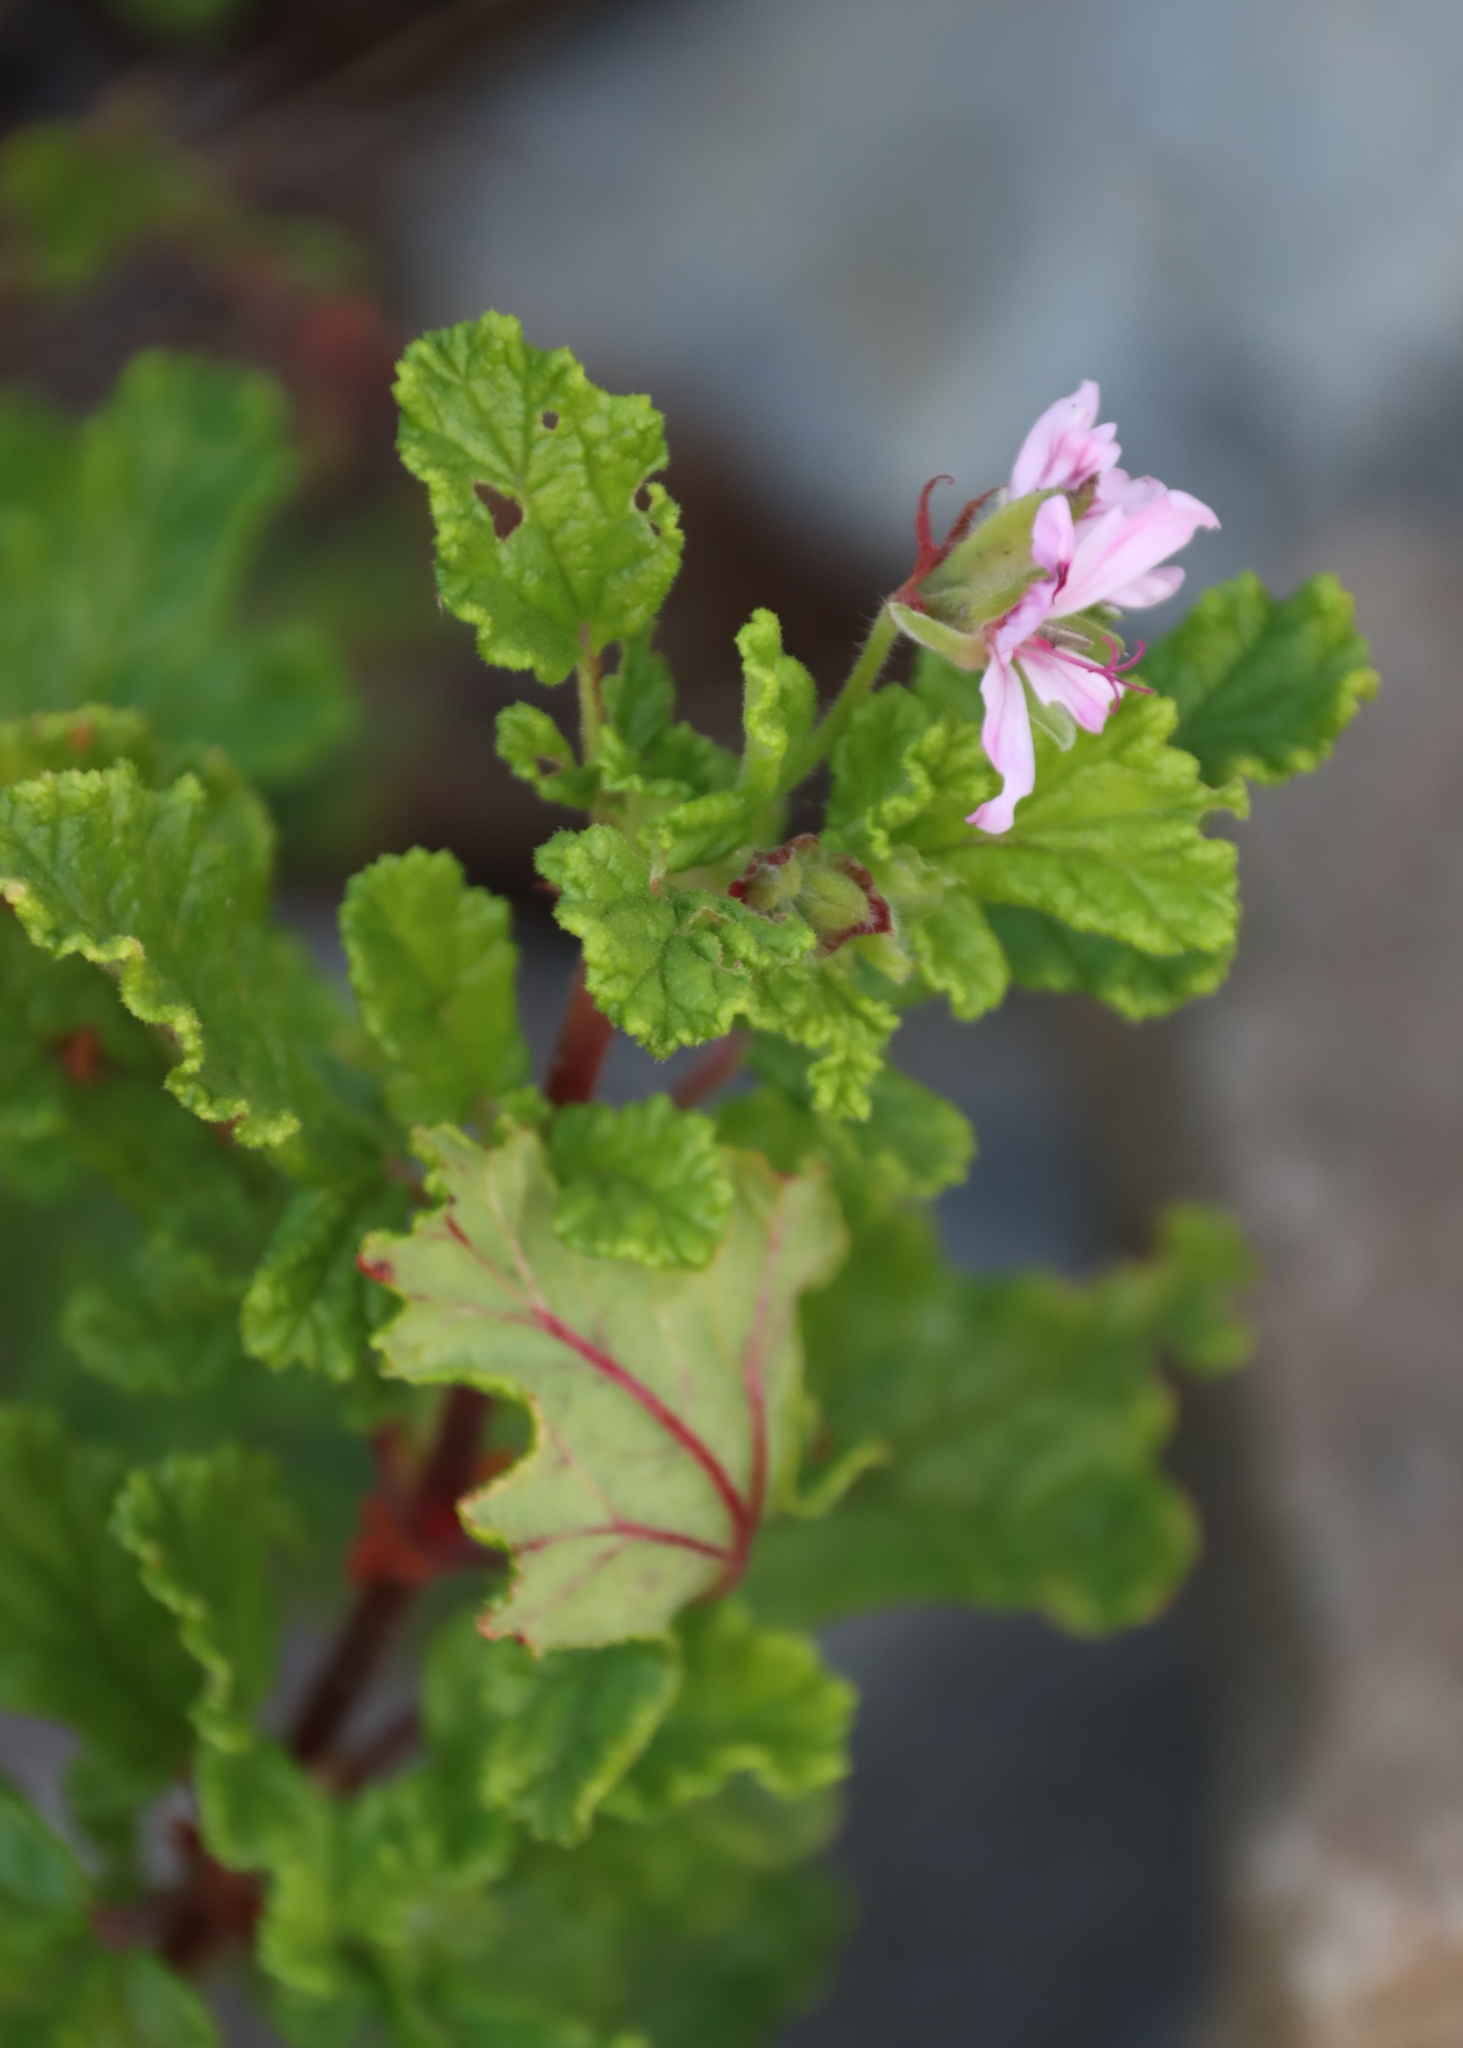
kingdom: Plantae
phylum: Tracheophyta
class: Magnoliopsida
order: Geraniales
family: Geraniaceae
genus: Pelargonium
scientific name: Pelargonium panduriforme
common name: Oakleaf garden geranium
